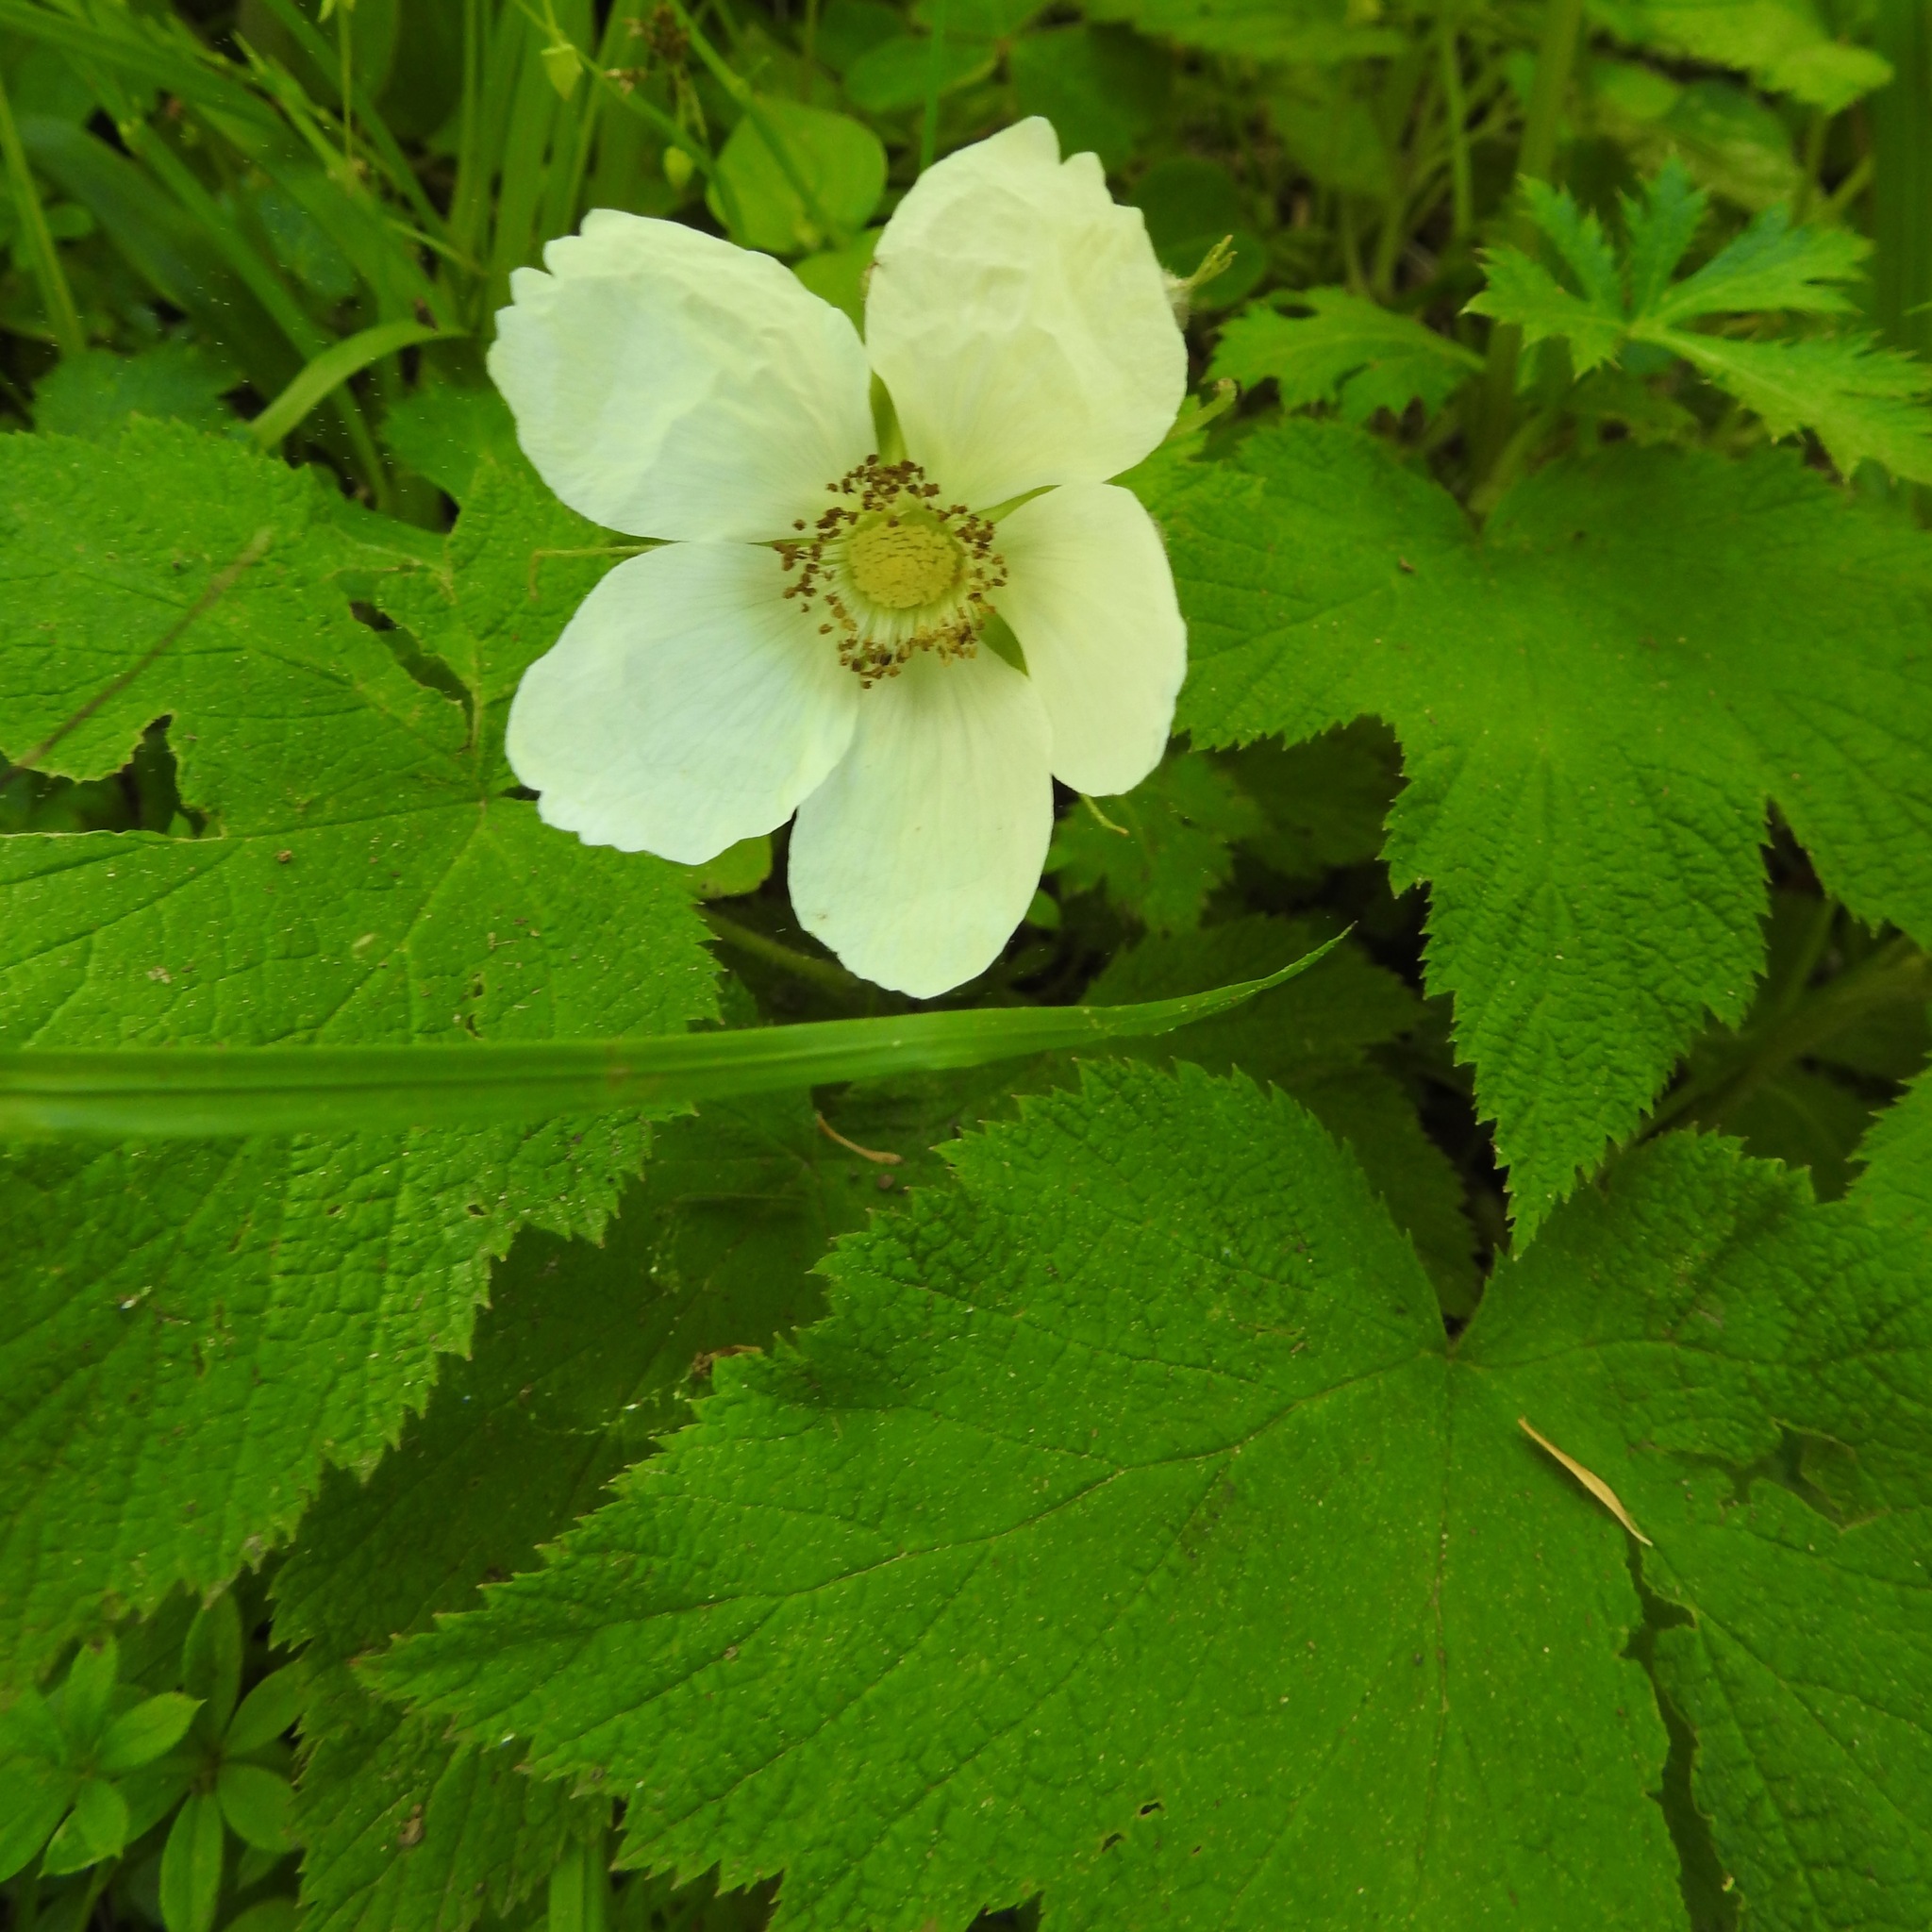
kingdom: Plantae
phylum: Tracheophyta
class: Magnoliopsida
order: Rosales
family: Rosaceae
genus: Rubus
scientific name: Rubus parviflorus
